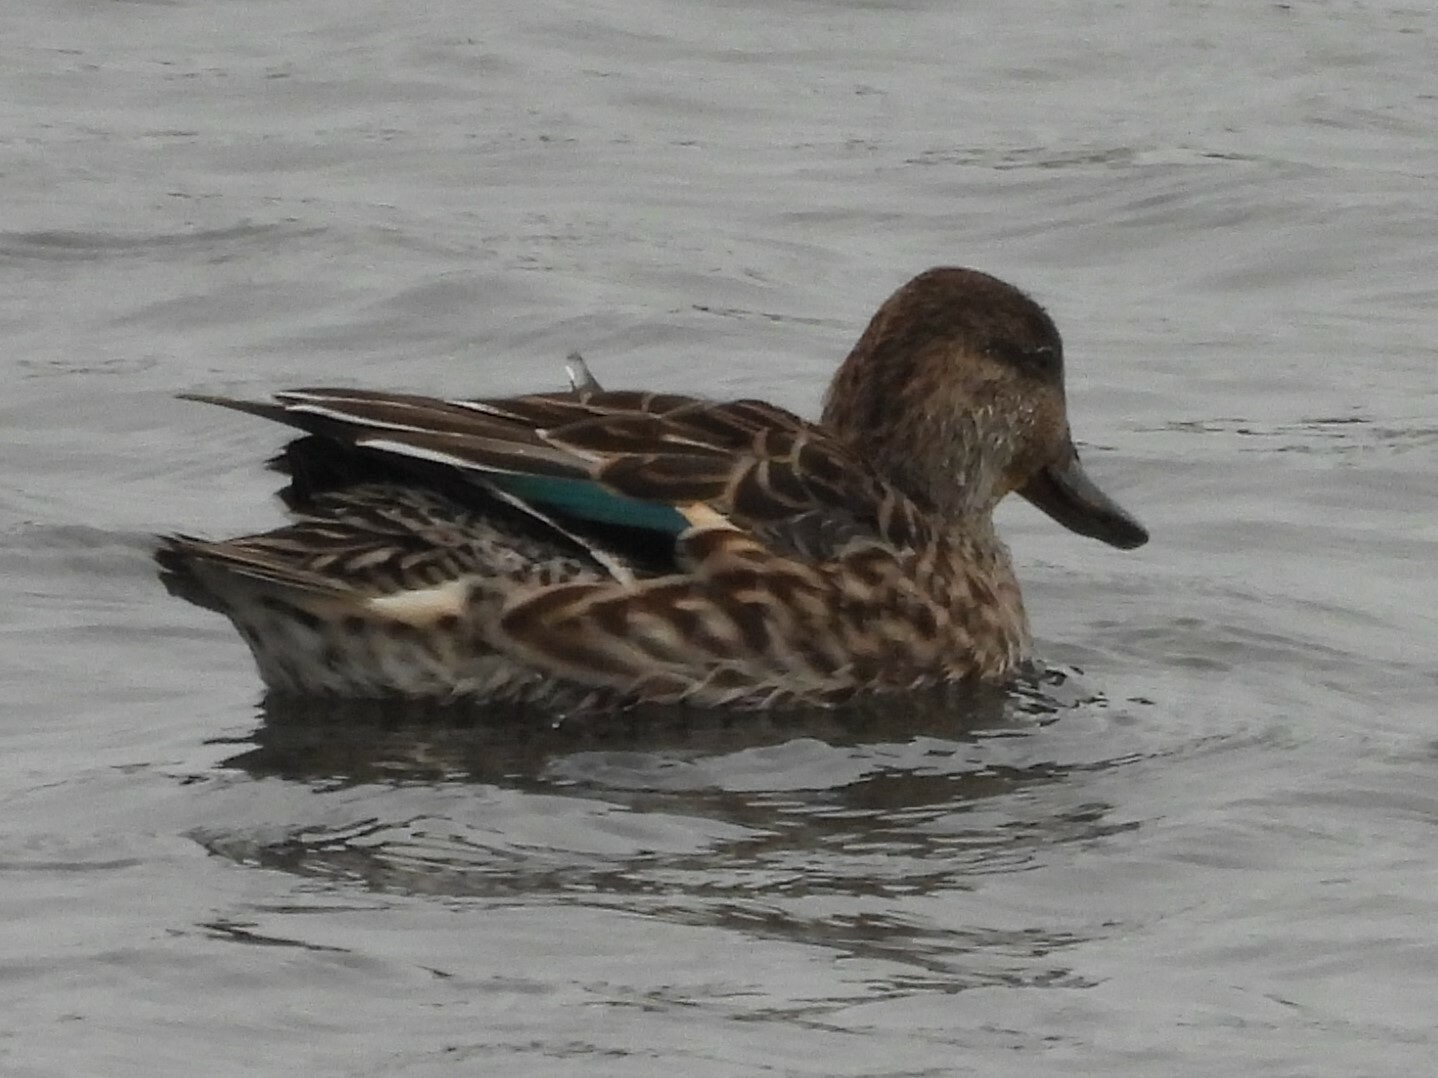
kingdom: Animalia
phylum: Chordata
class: Aves
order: Anseriformes
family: Anatidae
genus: Anas
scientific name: Anas crecca
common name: Eurasian teal
